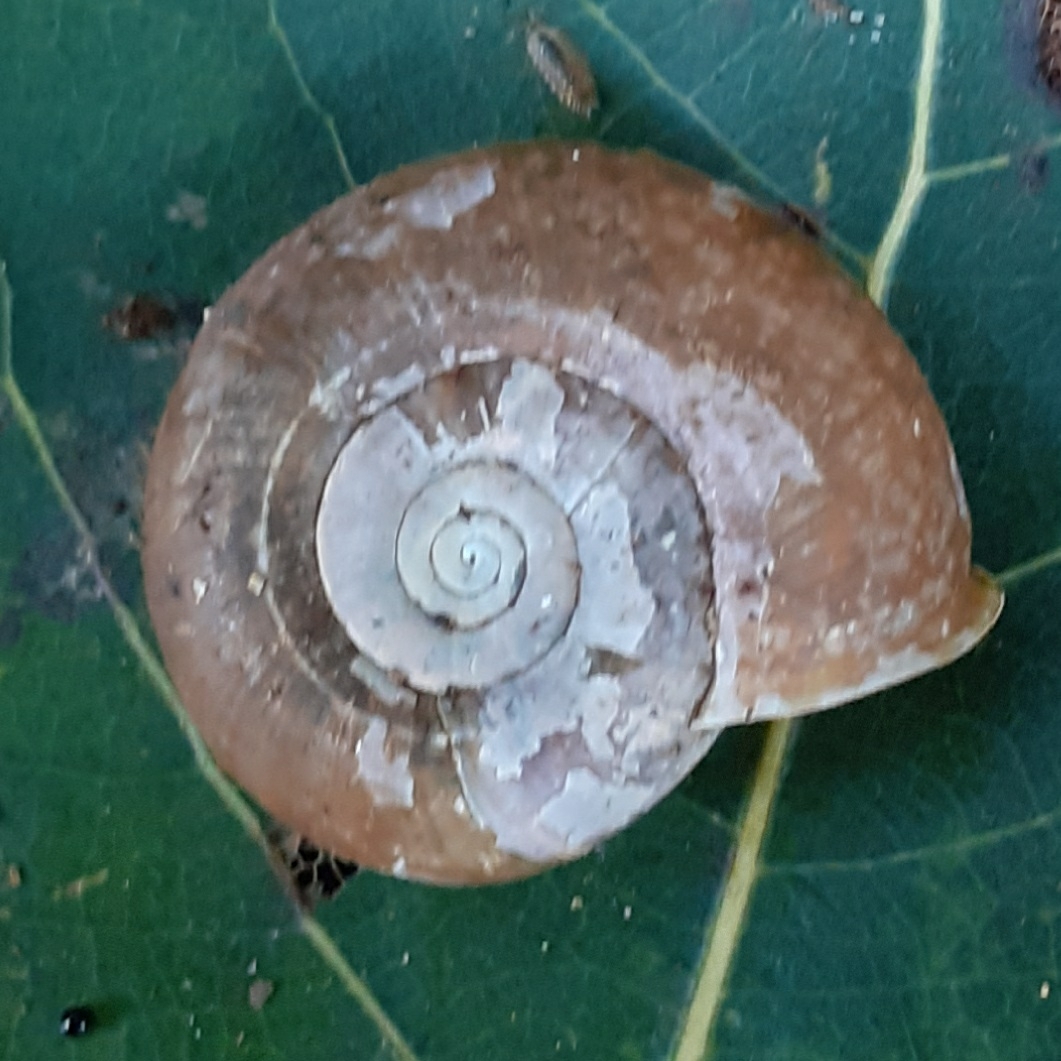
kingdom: Animalia
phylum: Mollusca
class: Gastropoda
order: Stylommatophora
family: Elonidae
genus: Elona
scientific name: Elona quimperiana
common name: Quimper snail
